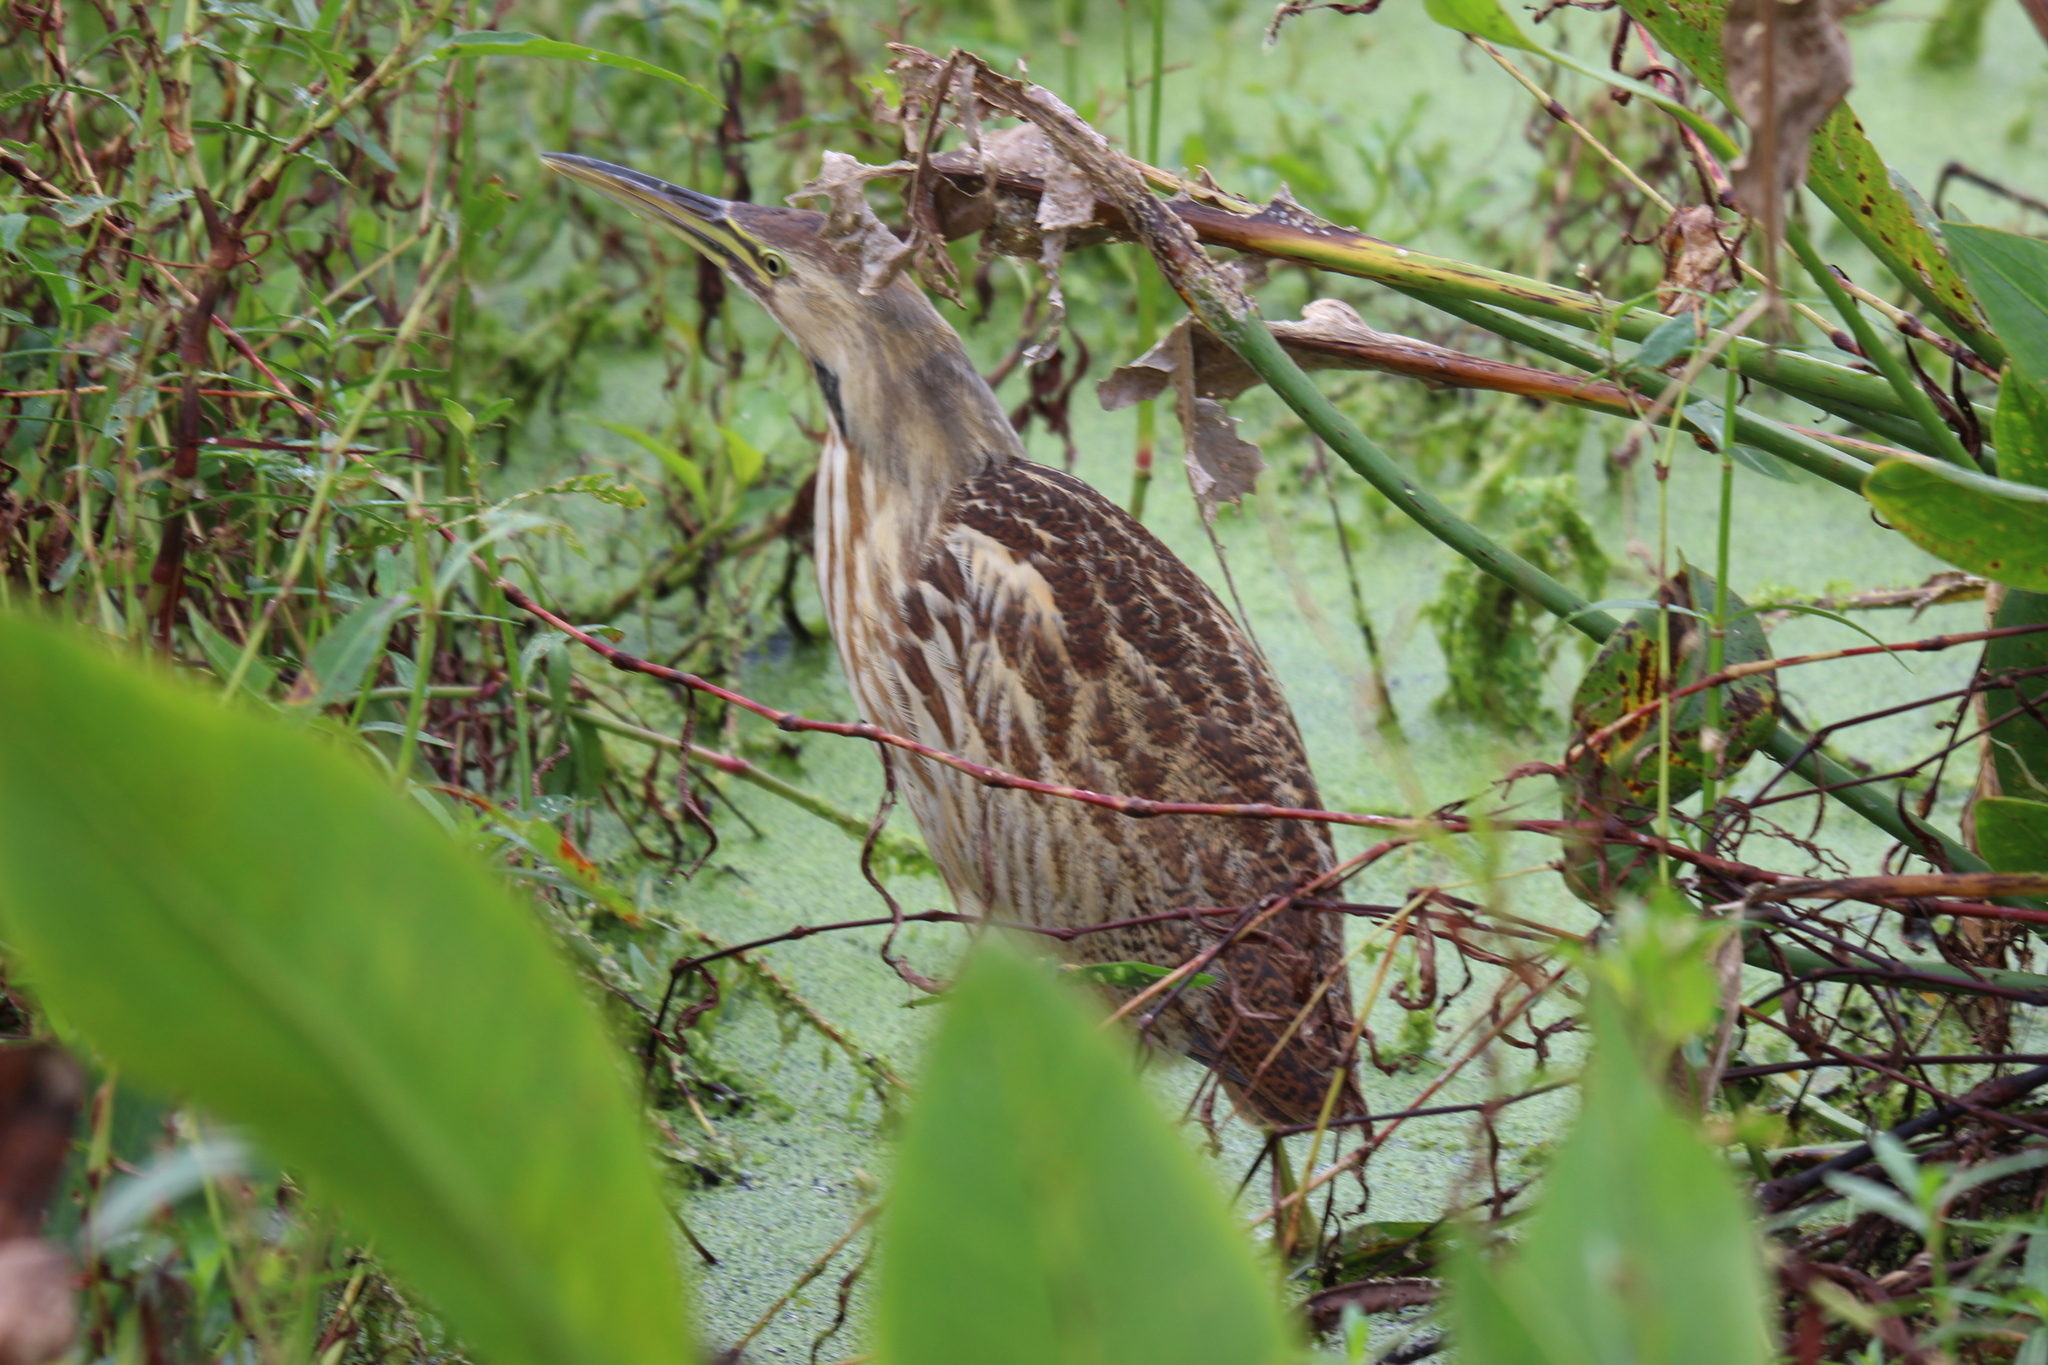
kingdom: Animalia
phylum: Chordata
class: Aves
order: Pelecaniformes
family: Ardeidae
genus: Botaurus
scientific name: Botaurus lentiginosus
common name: American bittern
